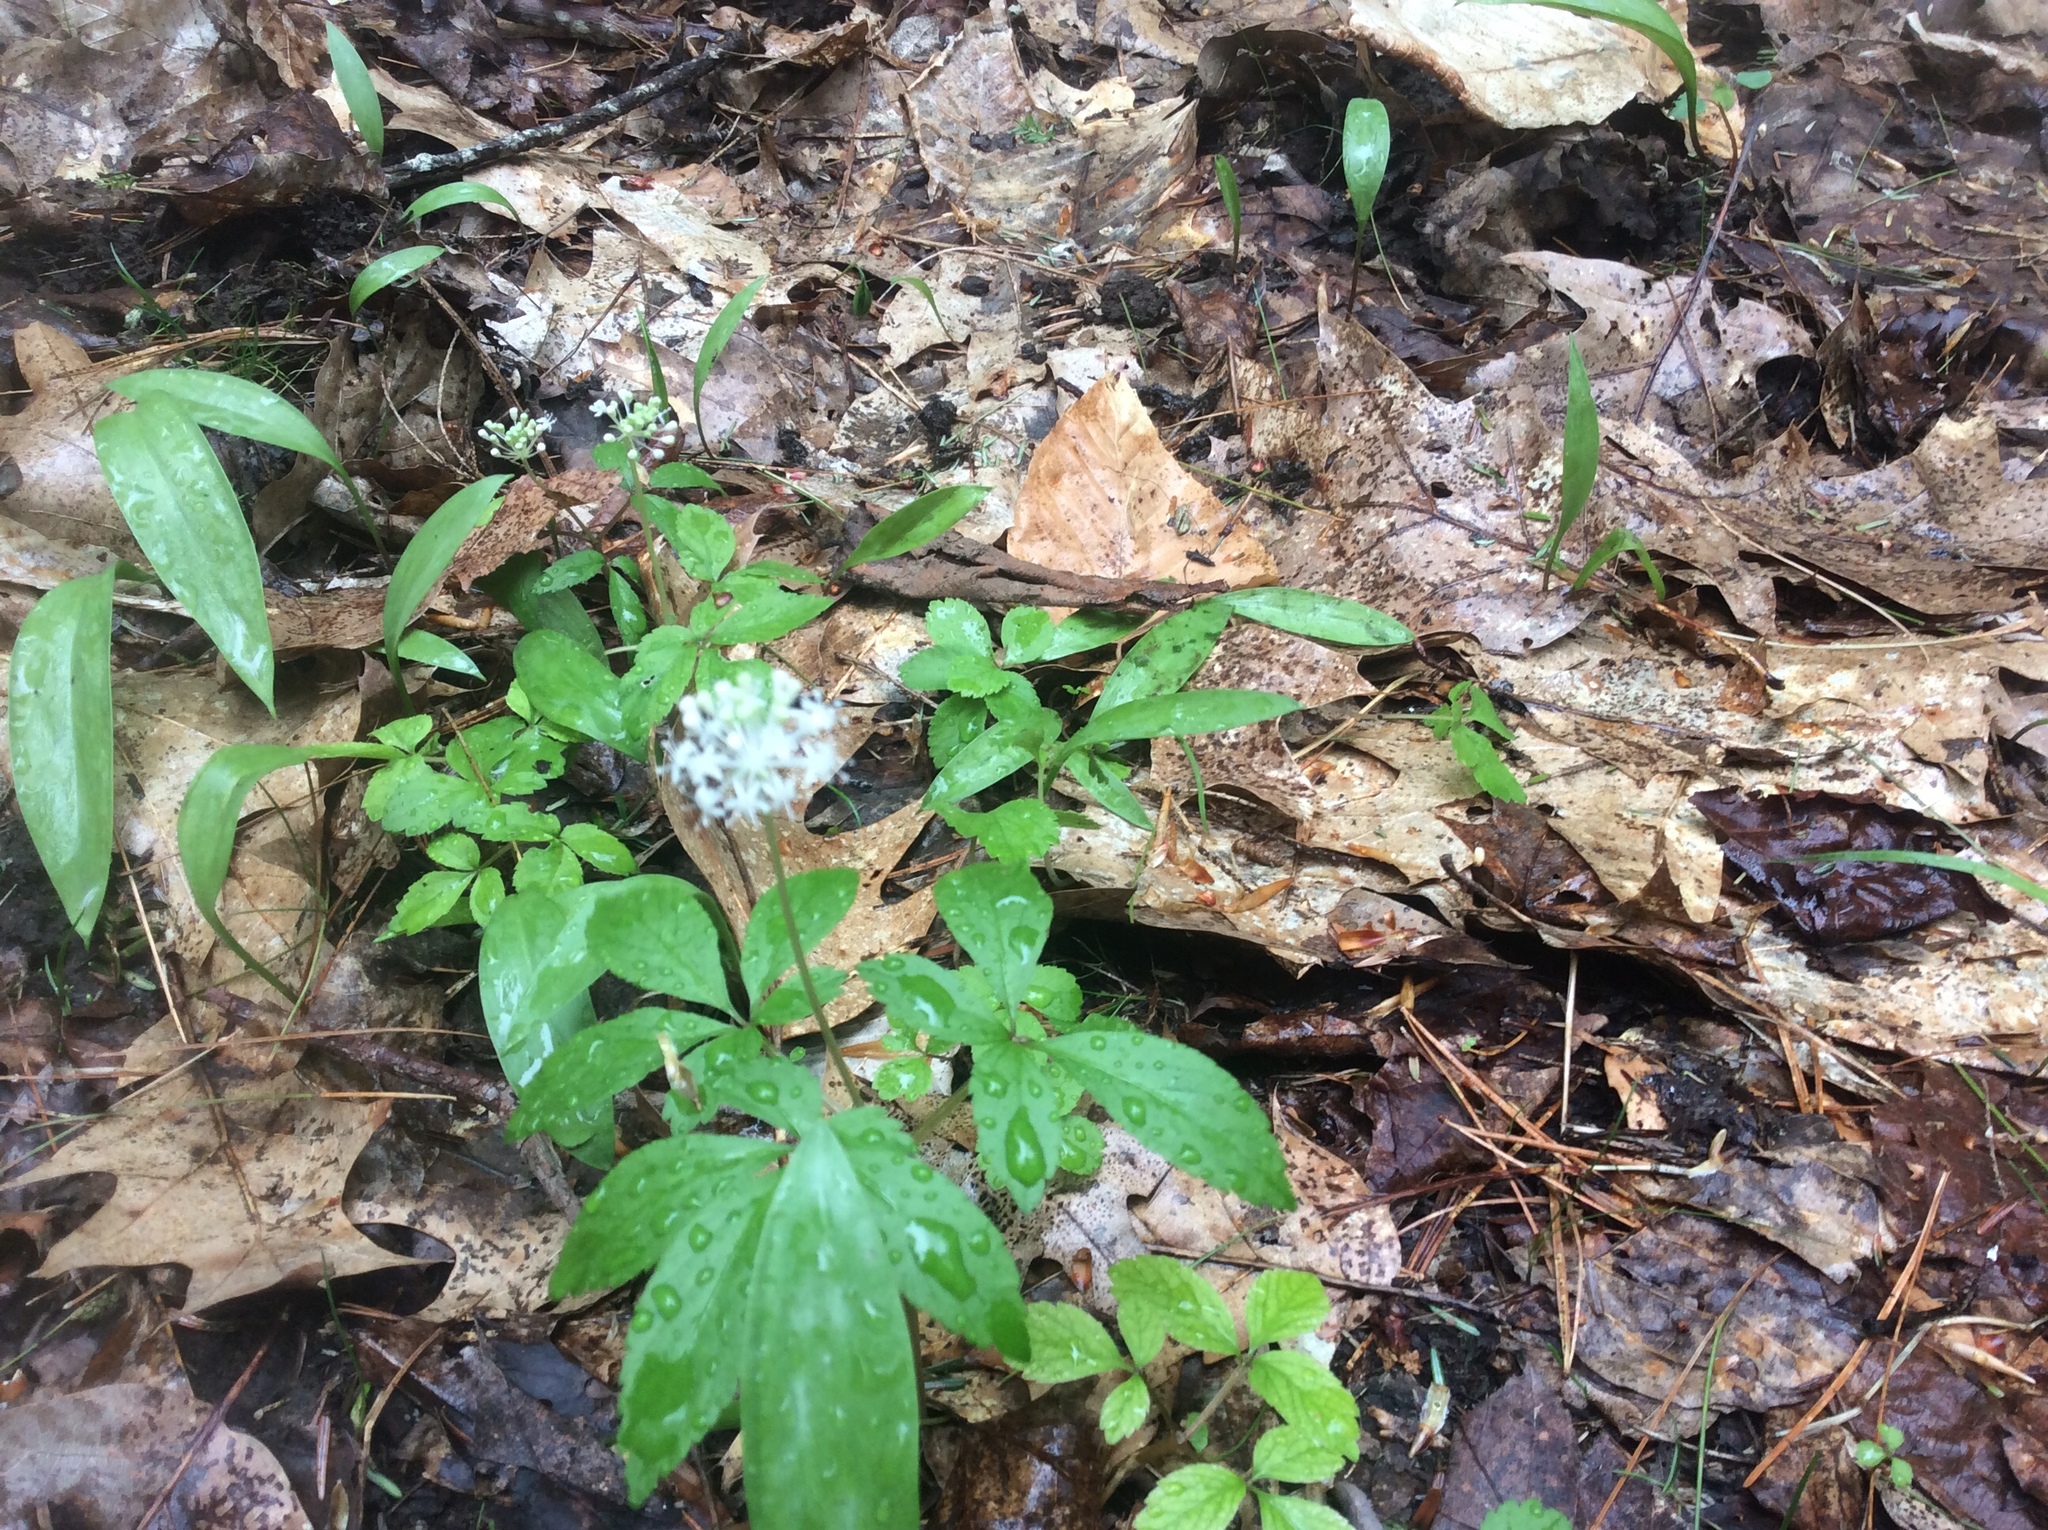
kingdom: Plantae
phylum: Tracheophyta
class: Magnoliopsida
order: Apiales
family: Araliaceae
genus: Panax
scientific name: Panax trifolius
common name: Dwarf ginseng
